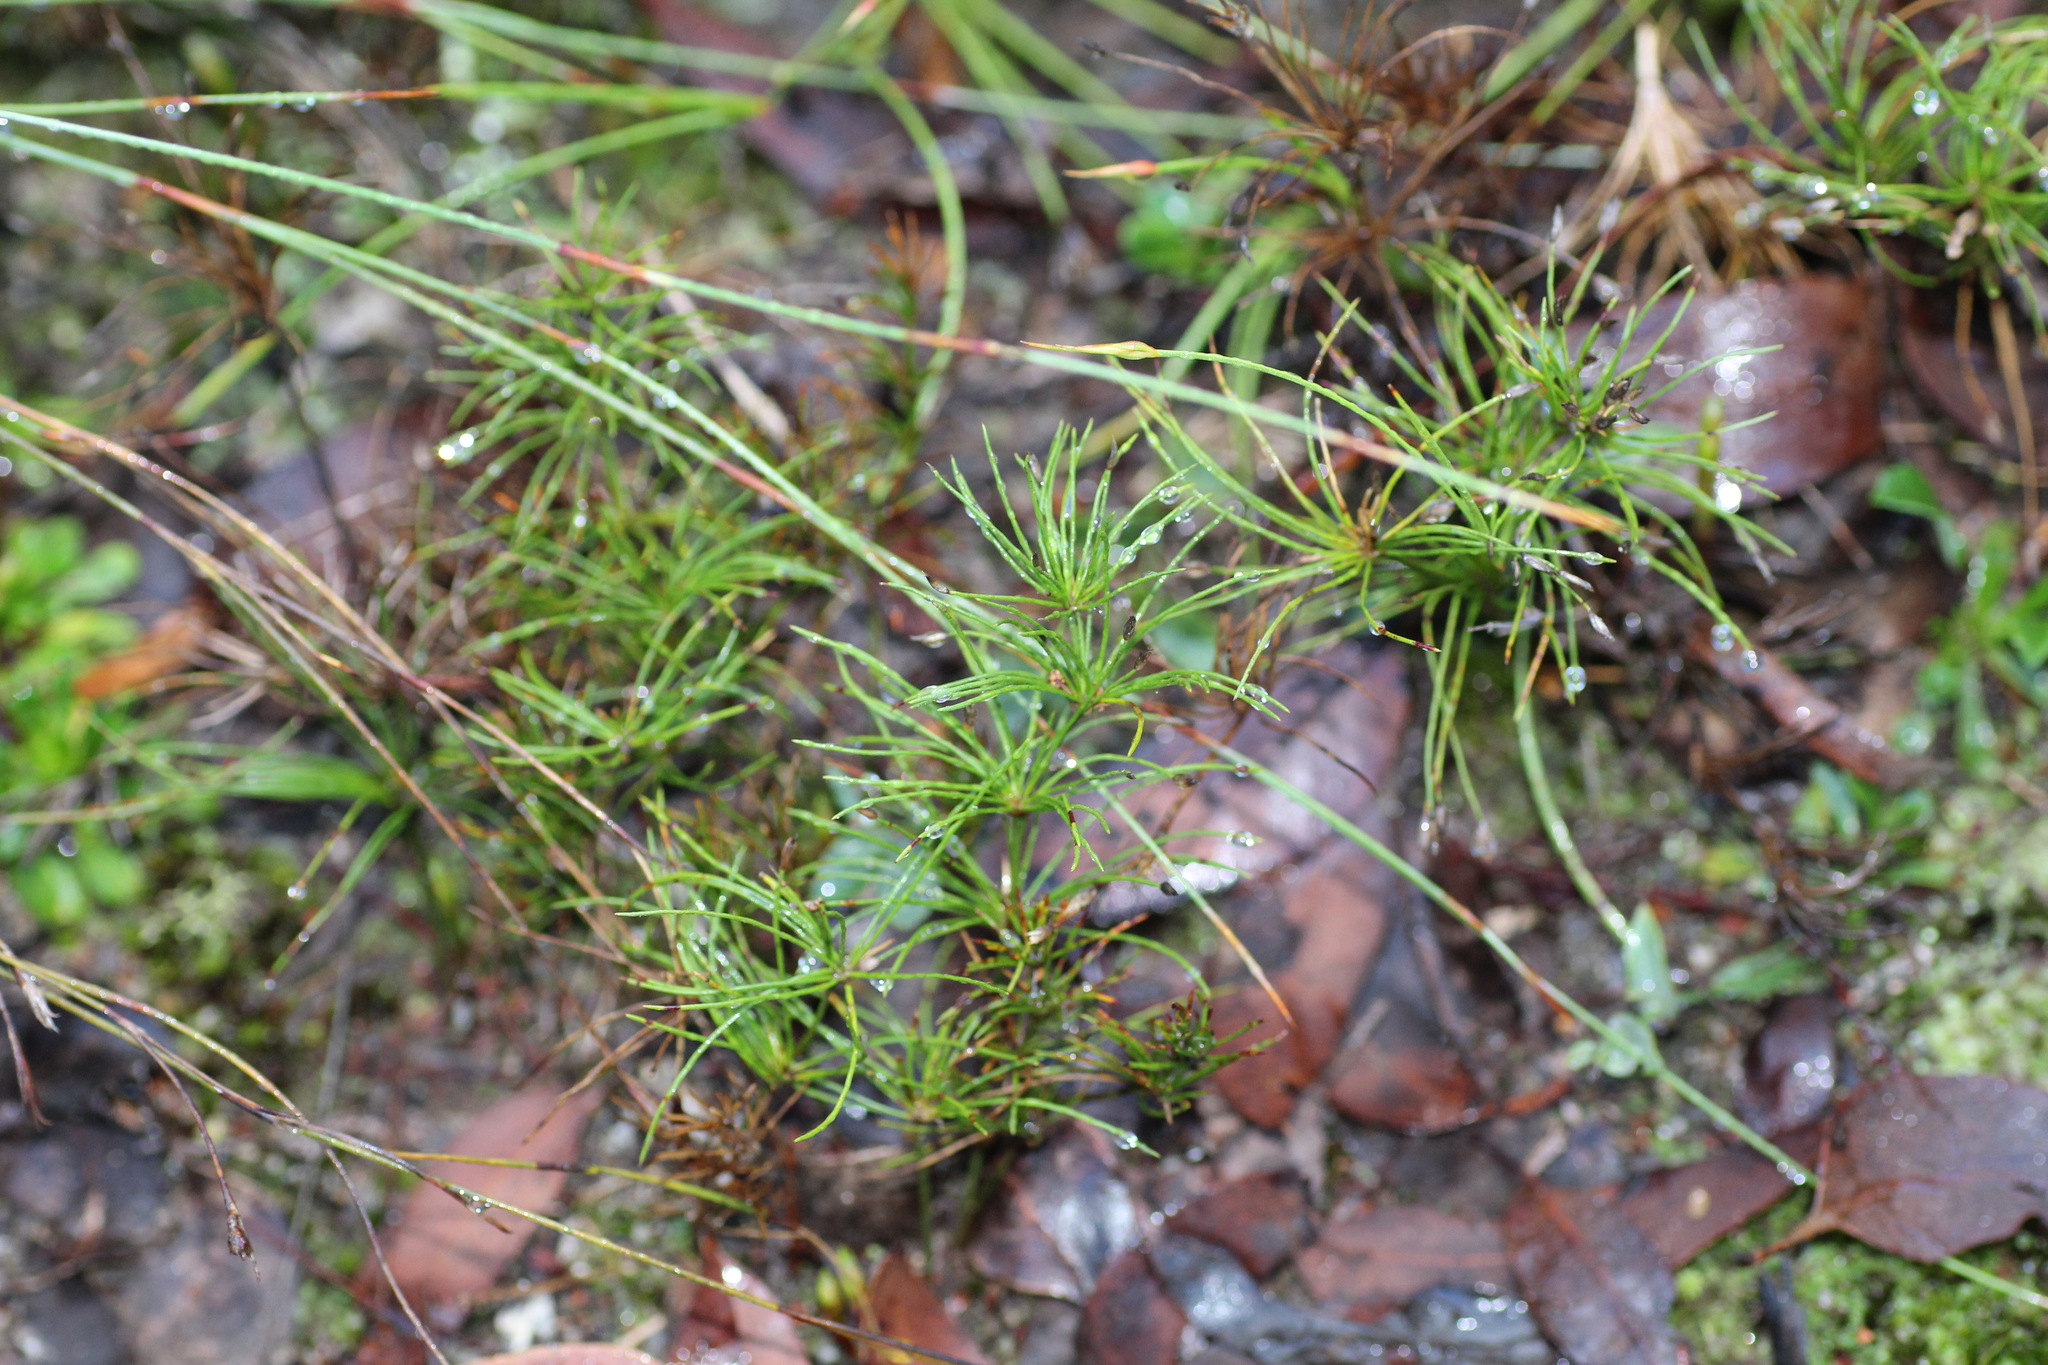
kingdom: Plantae
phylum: Tracheophyta
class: Liliopsida
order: Poales
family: Restionaceae
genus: Desmocladus
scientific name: Desmocladus fasciculatus
